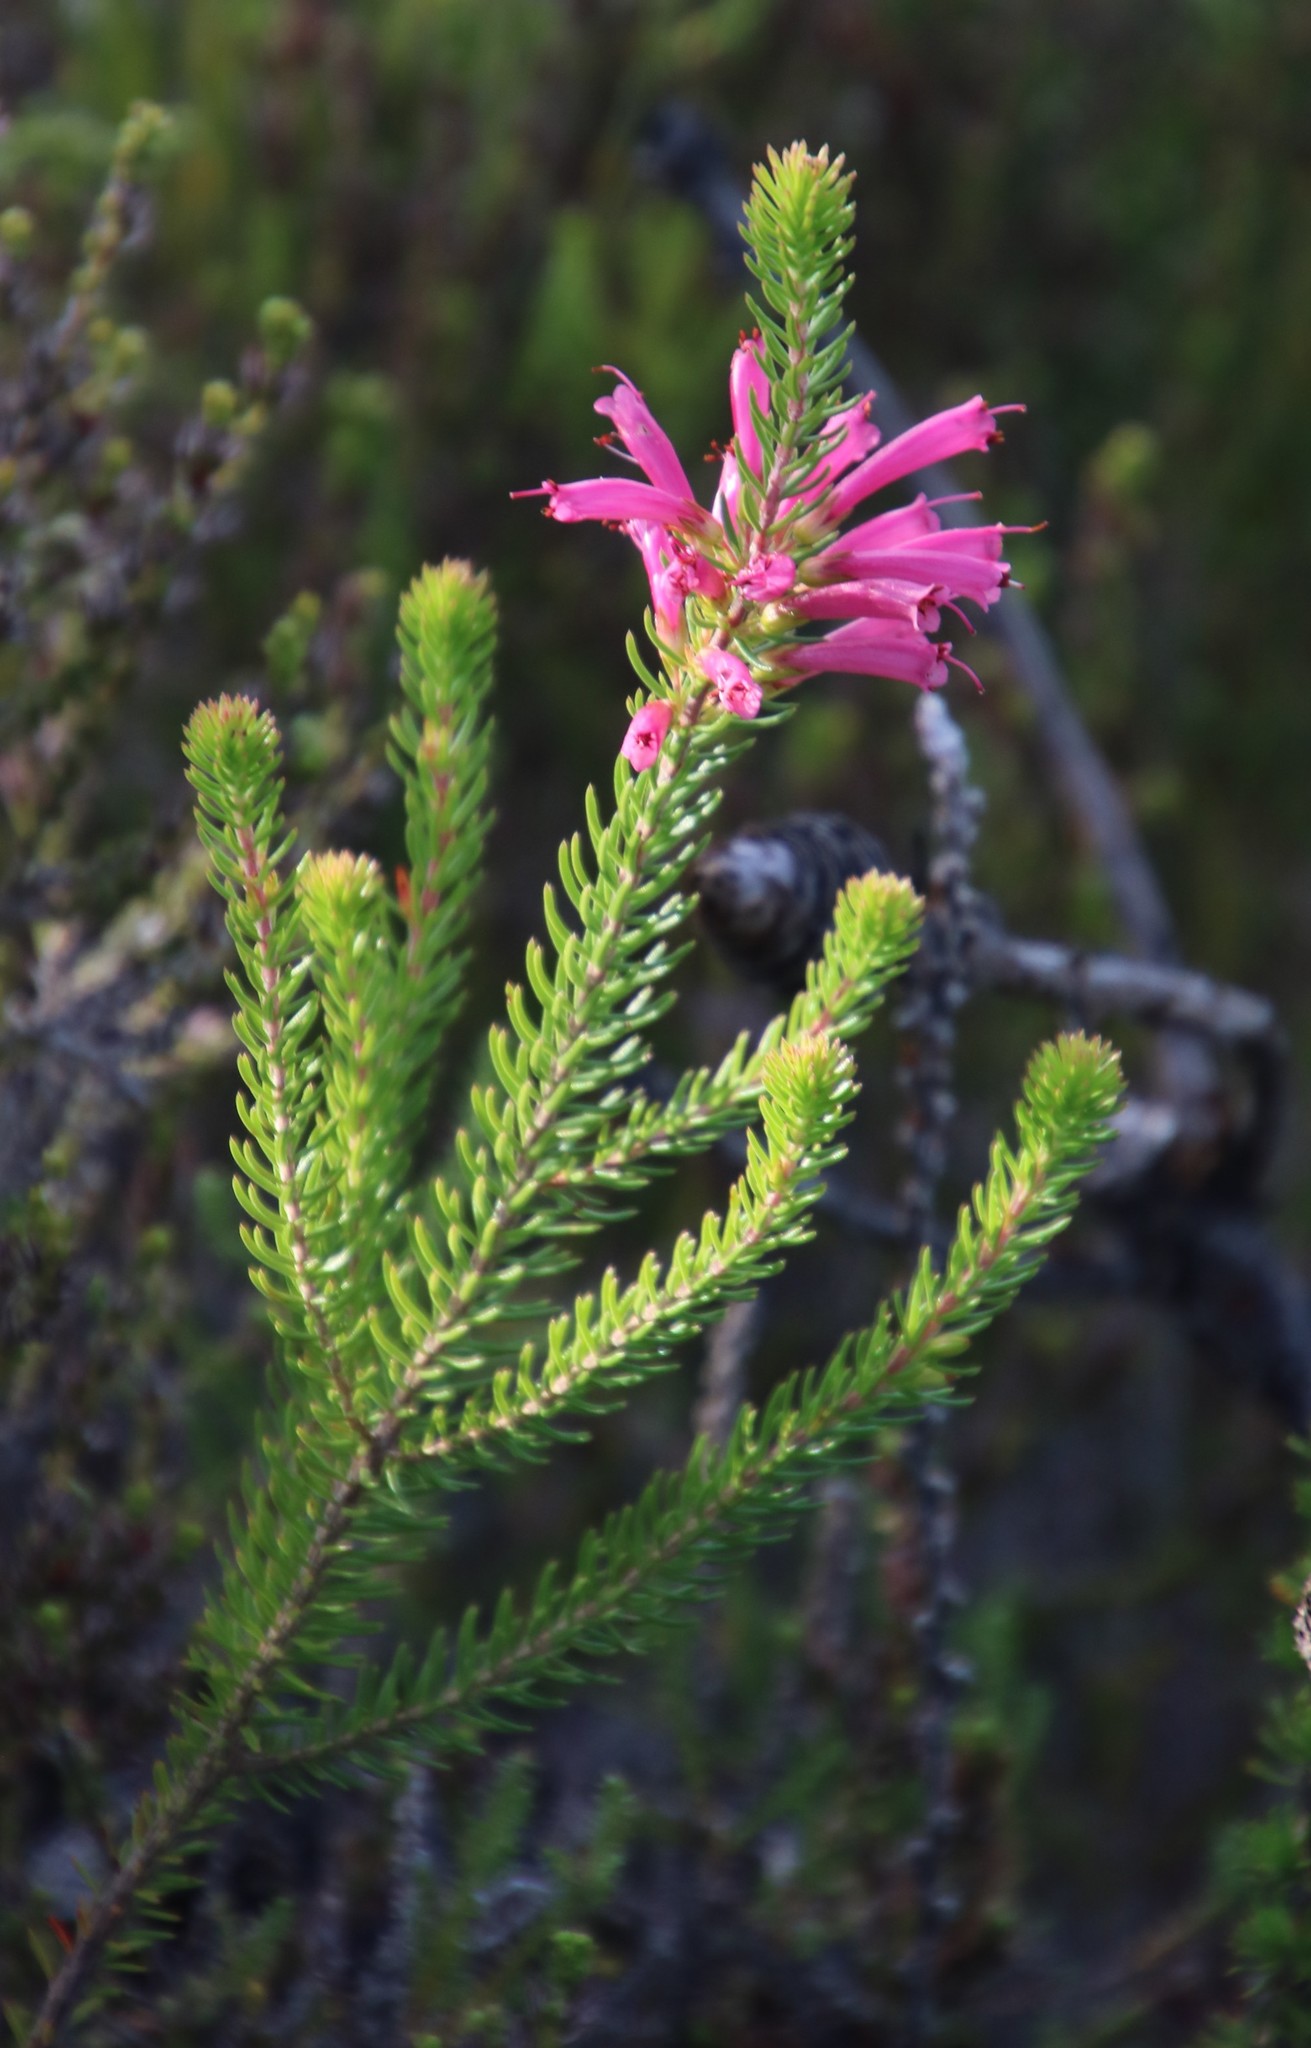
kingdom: Plantae
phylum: Tracheophyta
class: Magnoliopsida
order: Ericales
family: Ericaceae
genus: Erica
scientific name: Erica abietina
